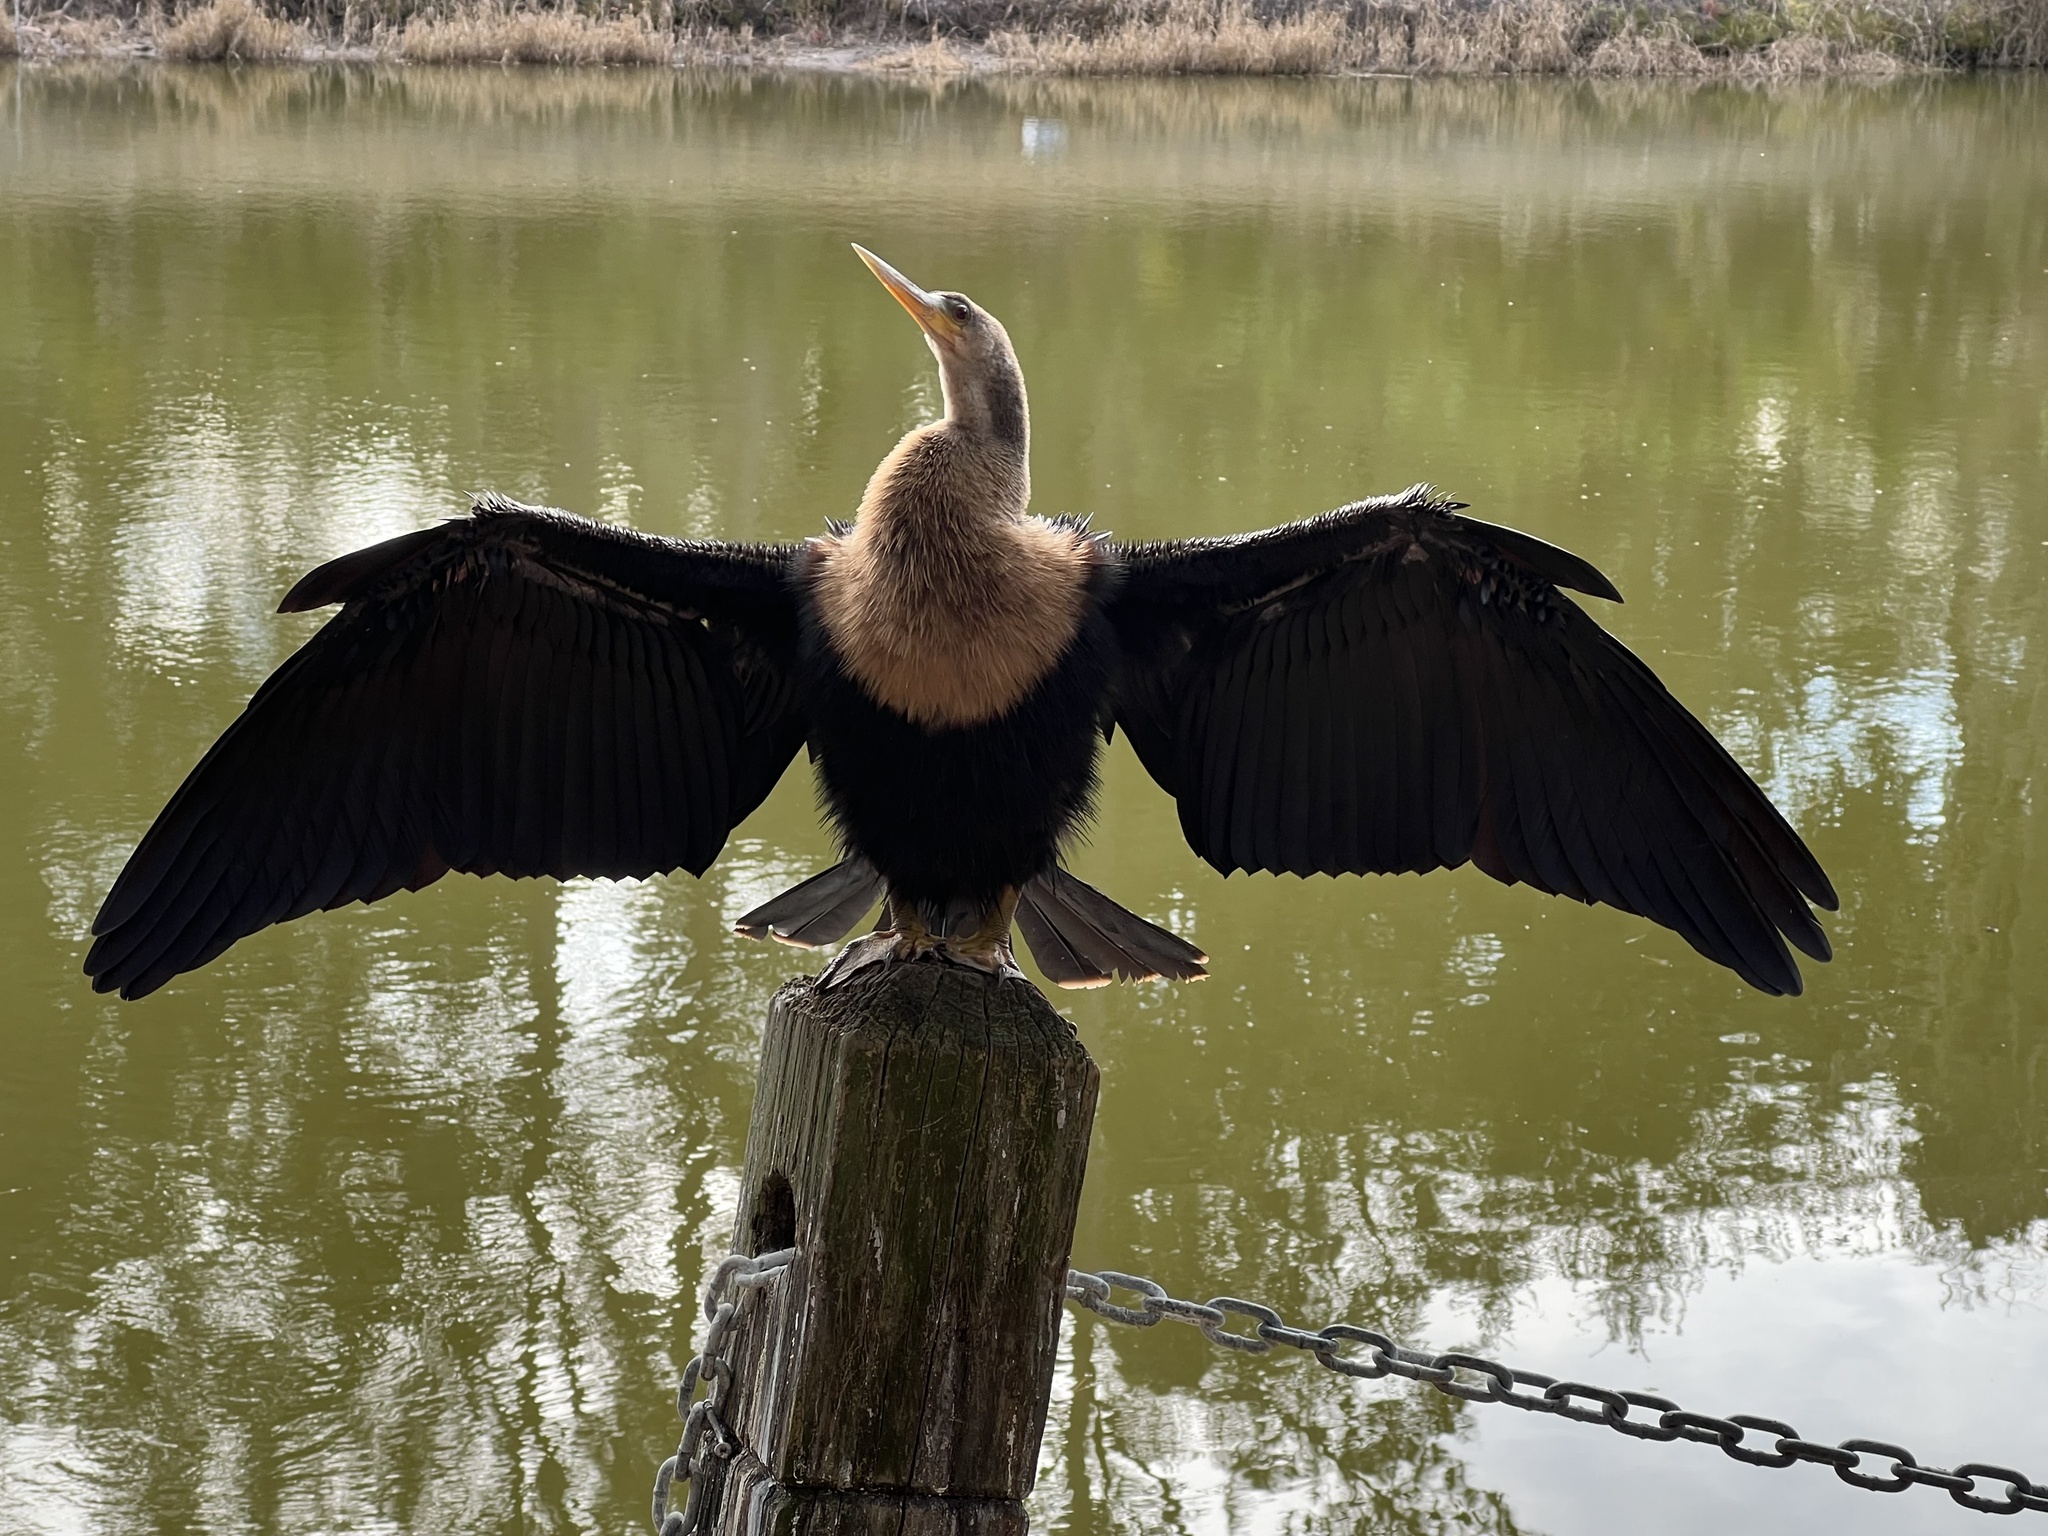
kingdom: Animalia
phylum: Chordata
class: Aves
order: Suliformes
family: Anhingidae
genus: Anhinga
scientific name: Anhinga anhinga
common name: Anhinga
